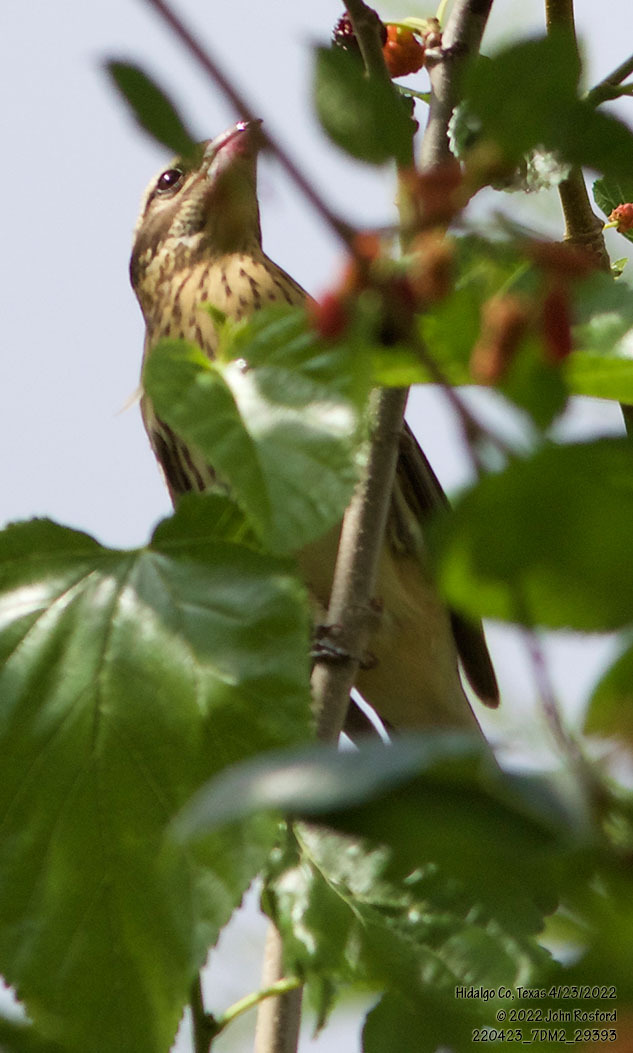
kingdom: Animalia
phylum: Chordata
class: Aves
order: Passeriformes
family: Cardinalidae
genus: Pheucticus
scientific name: Pheucticus ludovicianus
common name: Rose-breasted grosbeak
